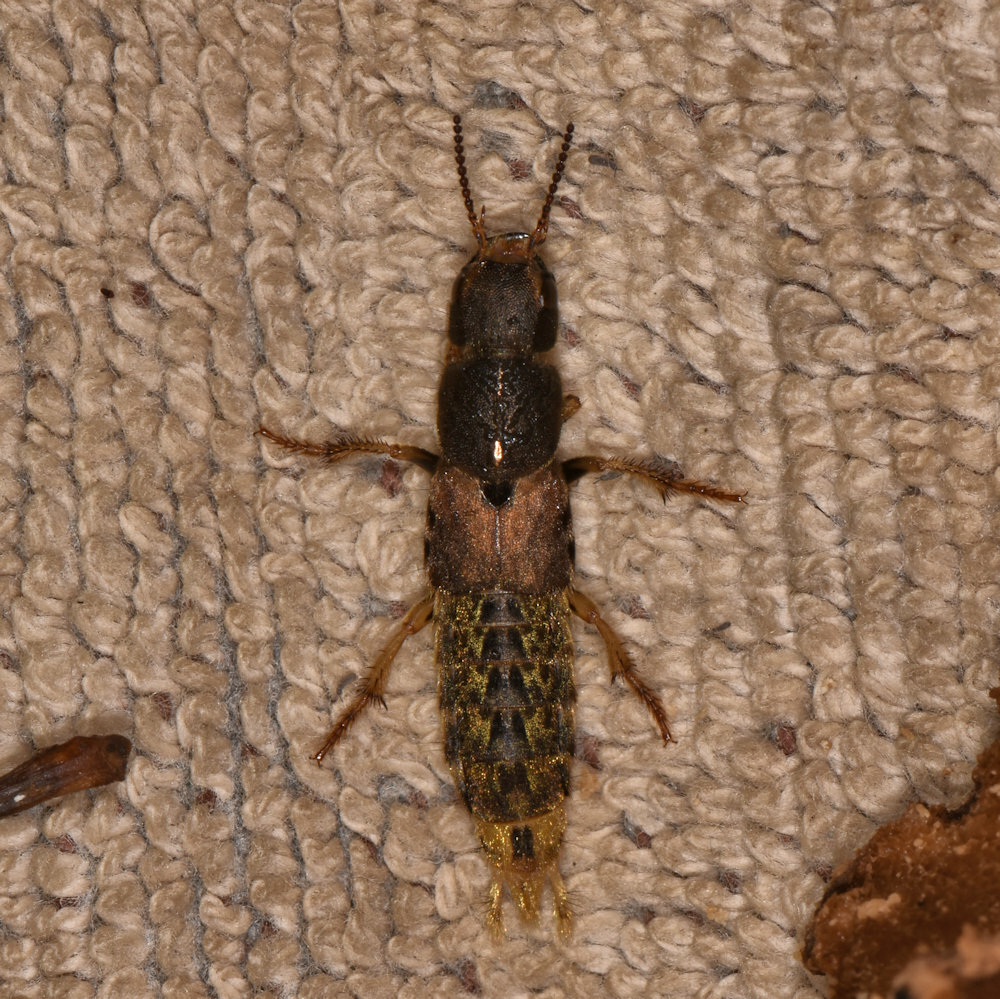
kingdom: Animalia
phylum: Arthropoda
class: Insecta
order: Coleoptera
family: Staphylinidae
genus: Platydracus
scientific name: Platydracus maculosus
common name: Brown rove beetle
